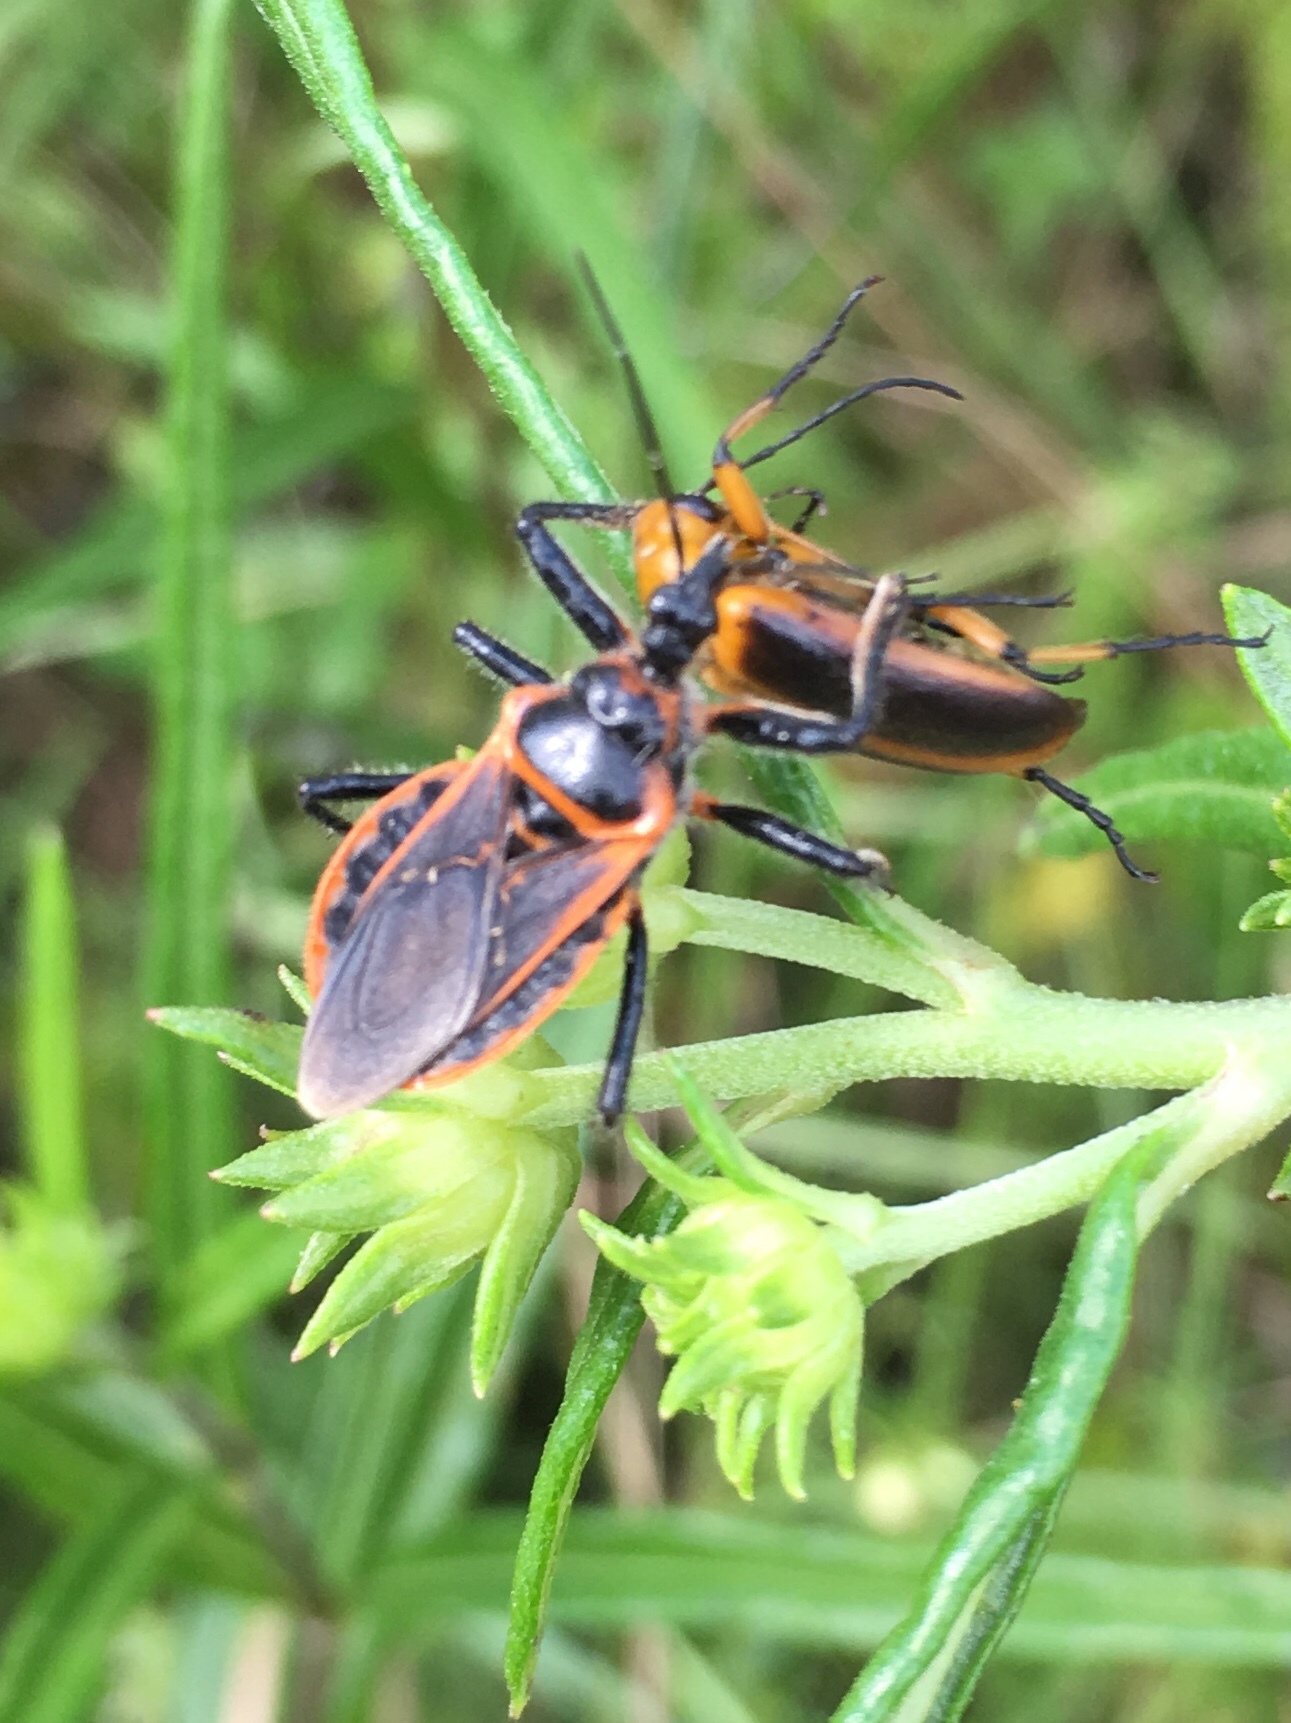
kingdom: Animalia
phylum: Arthropoda
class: Insecta
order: Hemiptera
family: Reduviidae
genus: Apiomerus
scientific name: Apiomerus crassipes
